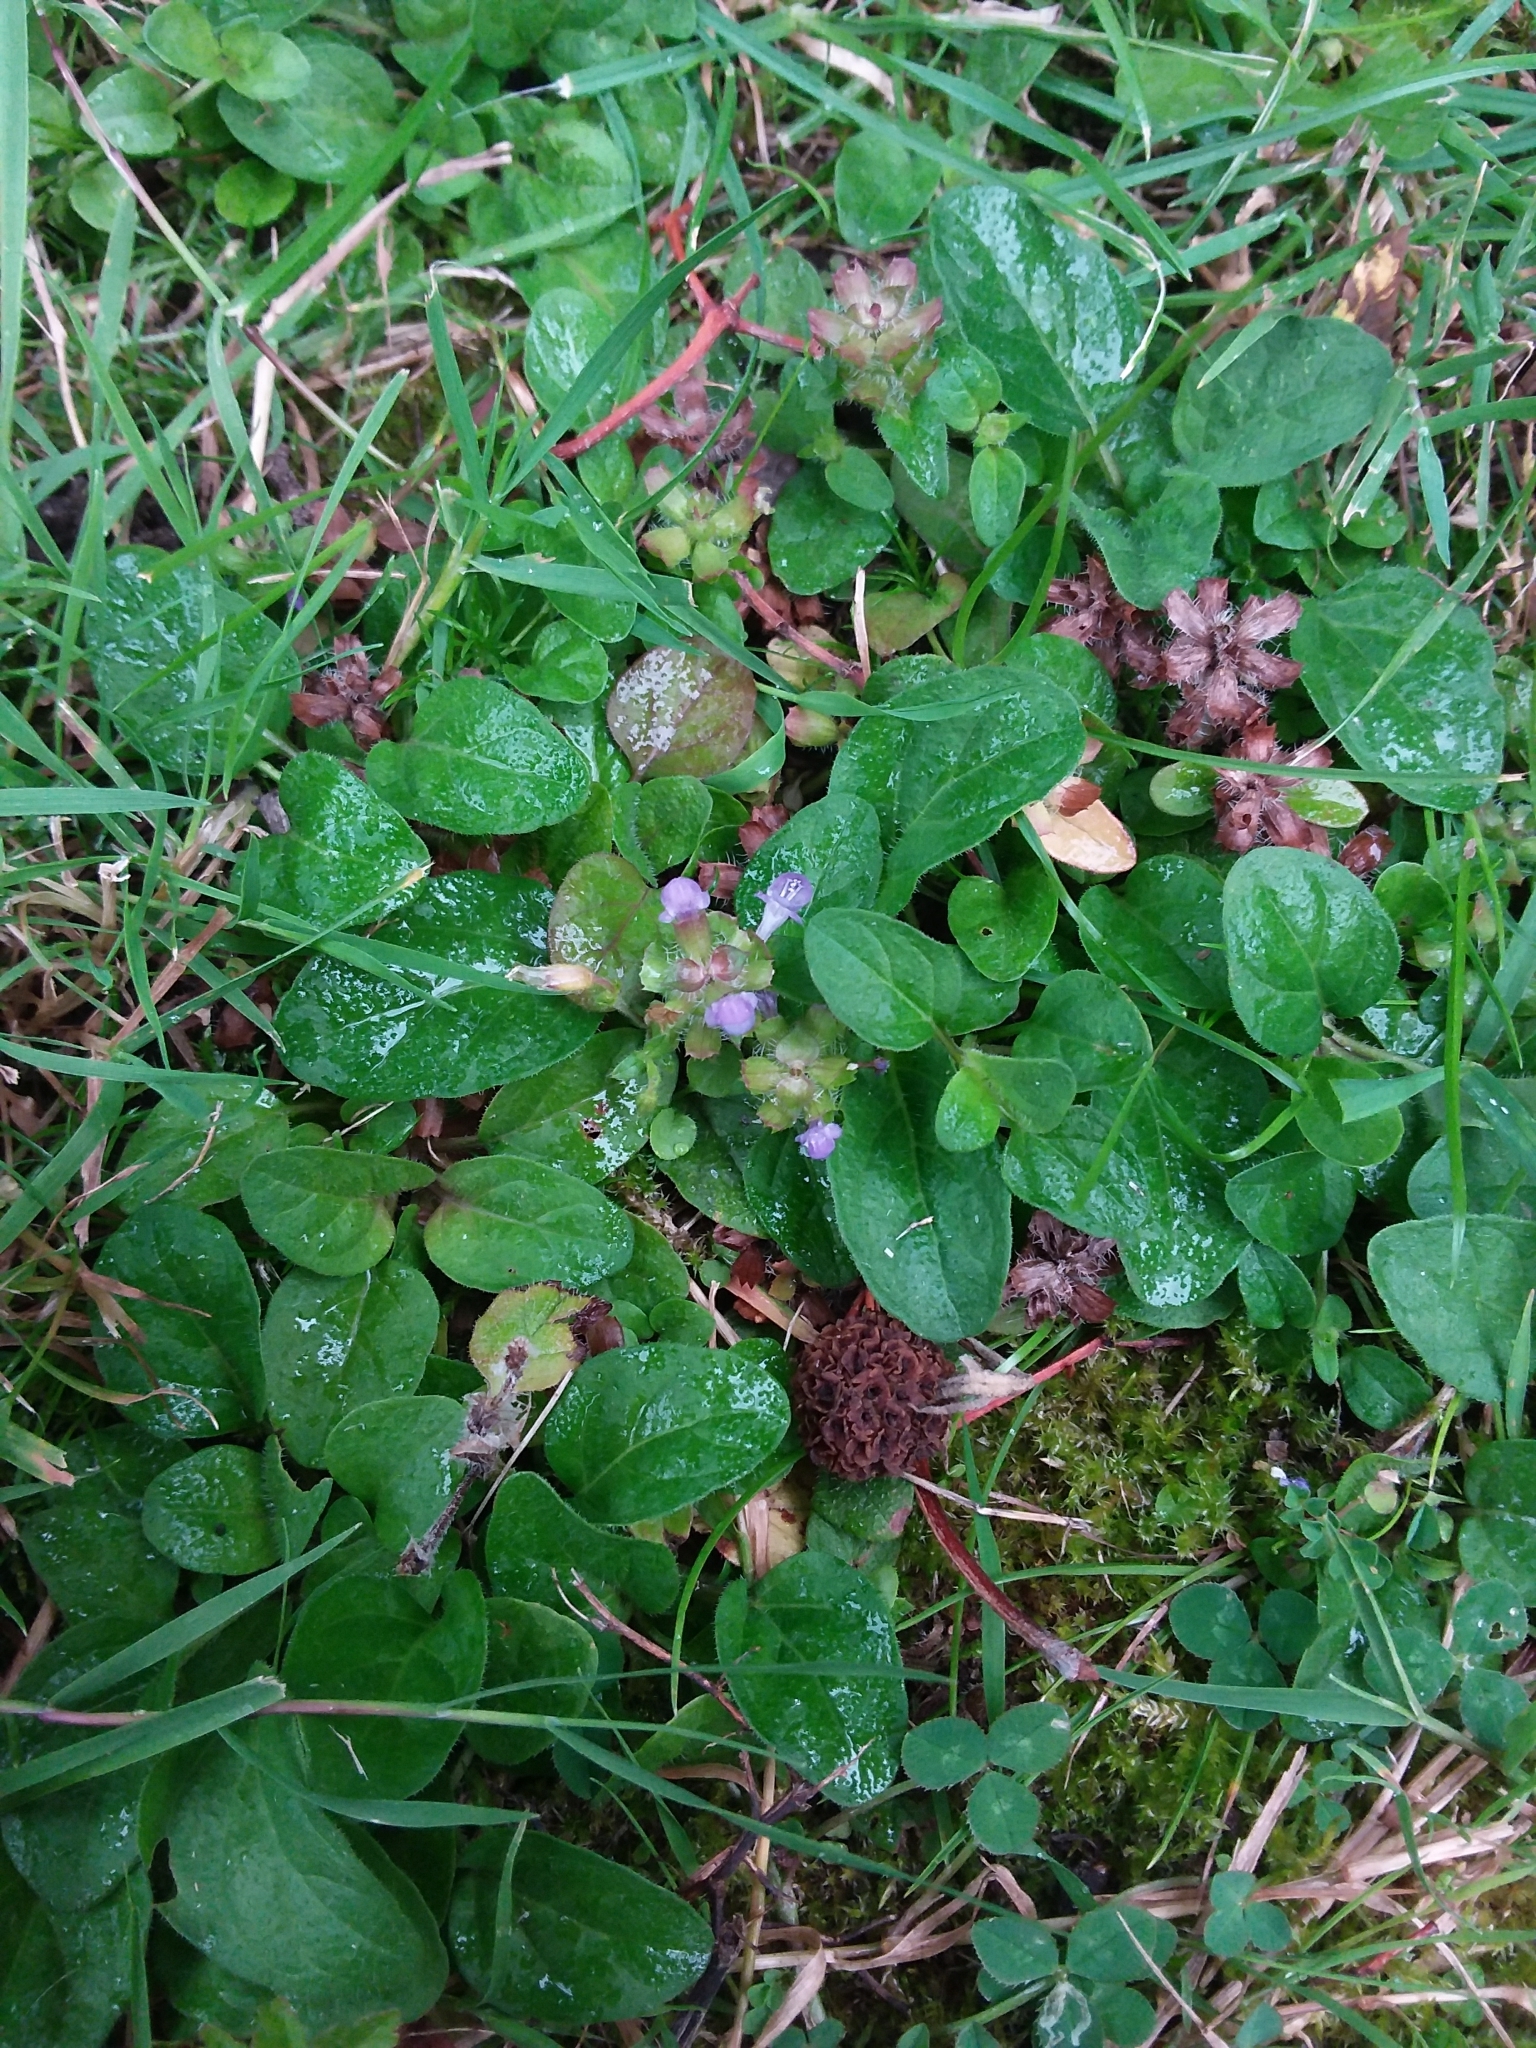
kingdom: Plantae
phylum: Tracheophyta
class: Magnoliopsida
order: Lamiales
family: Lamiaceae
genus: Prunella
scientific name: Prunella vulgaris
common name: Heal-all
